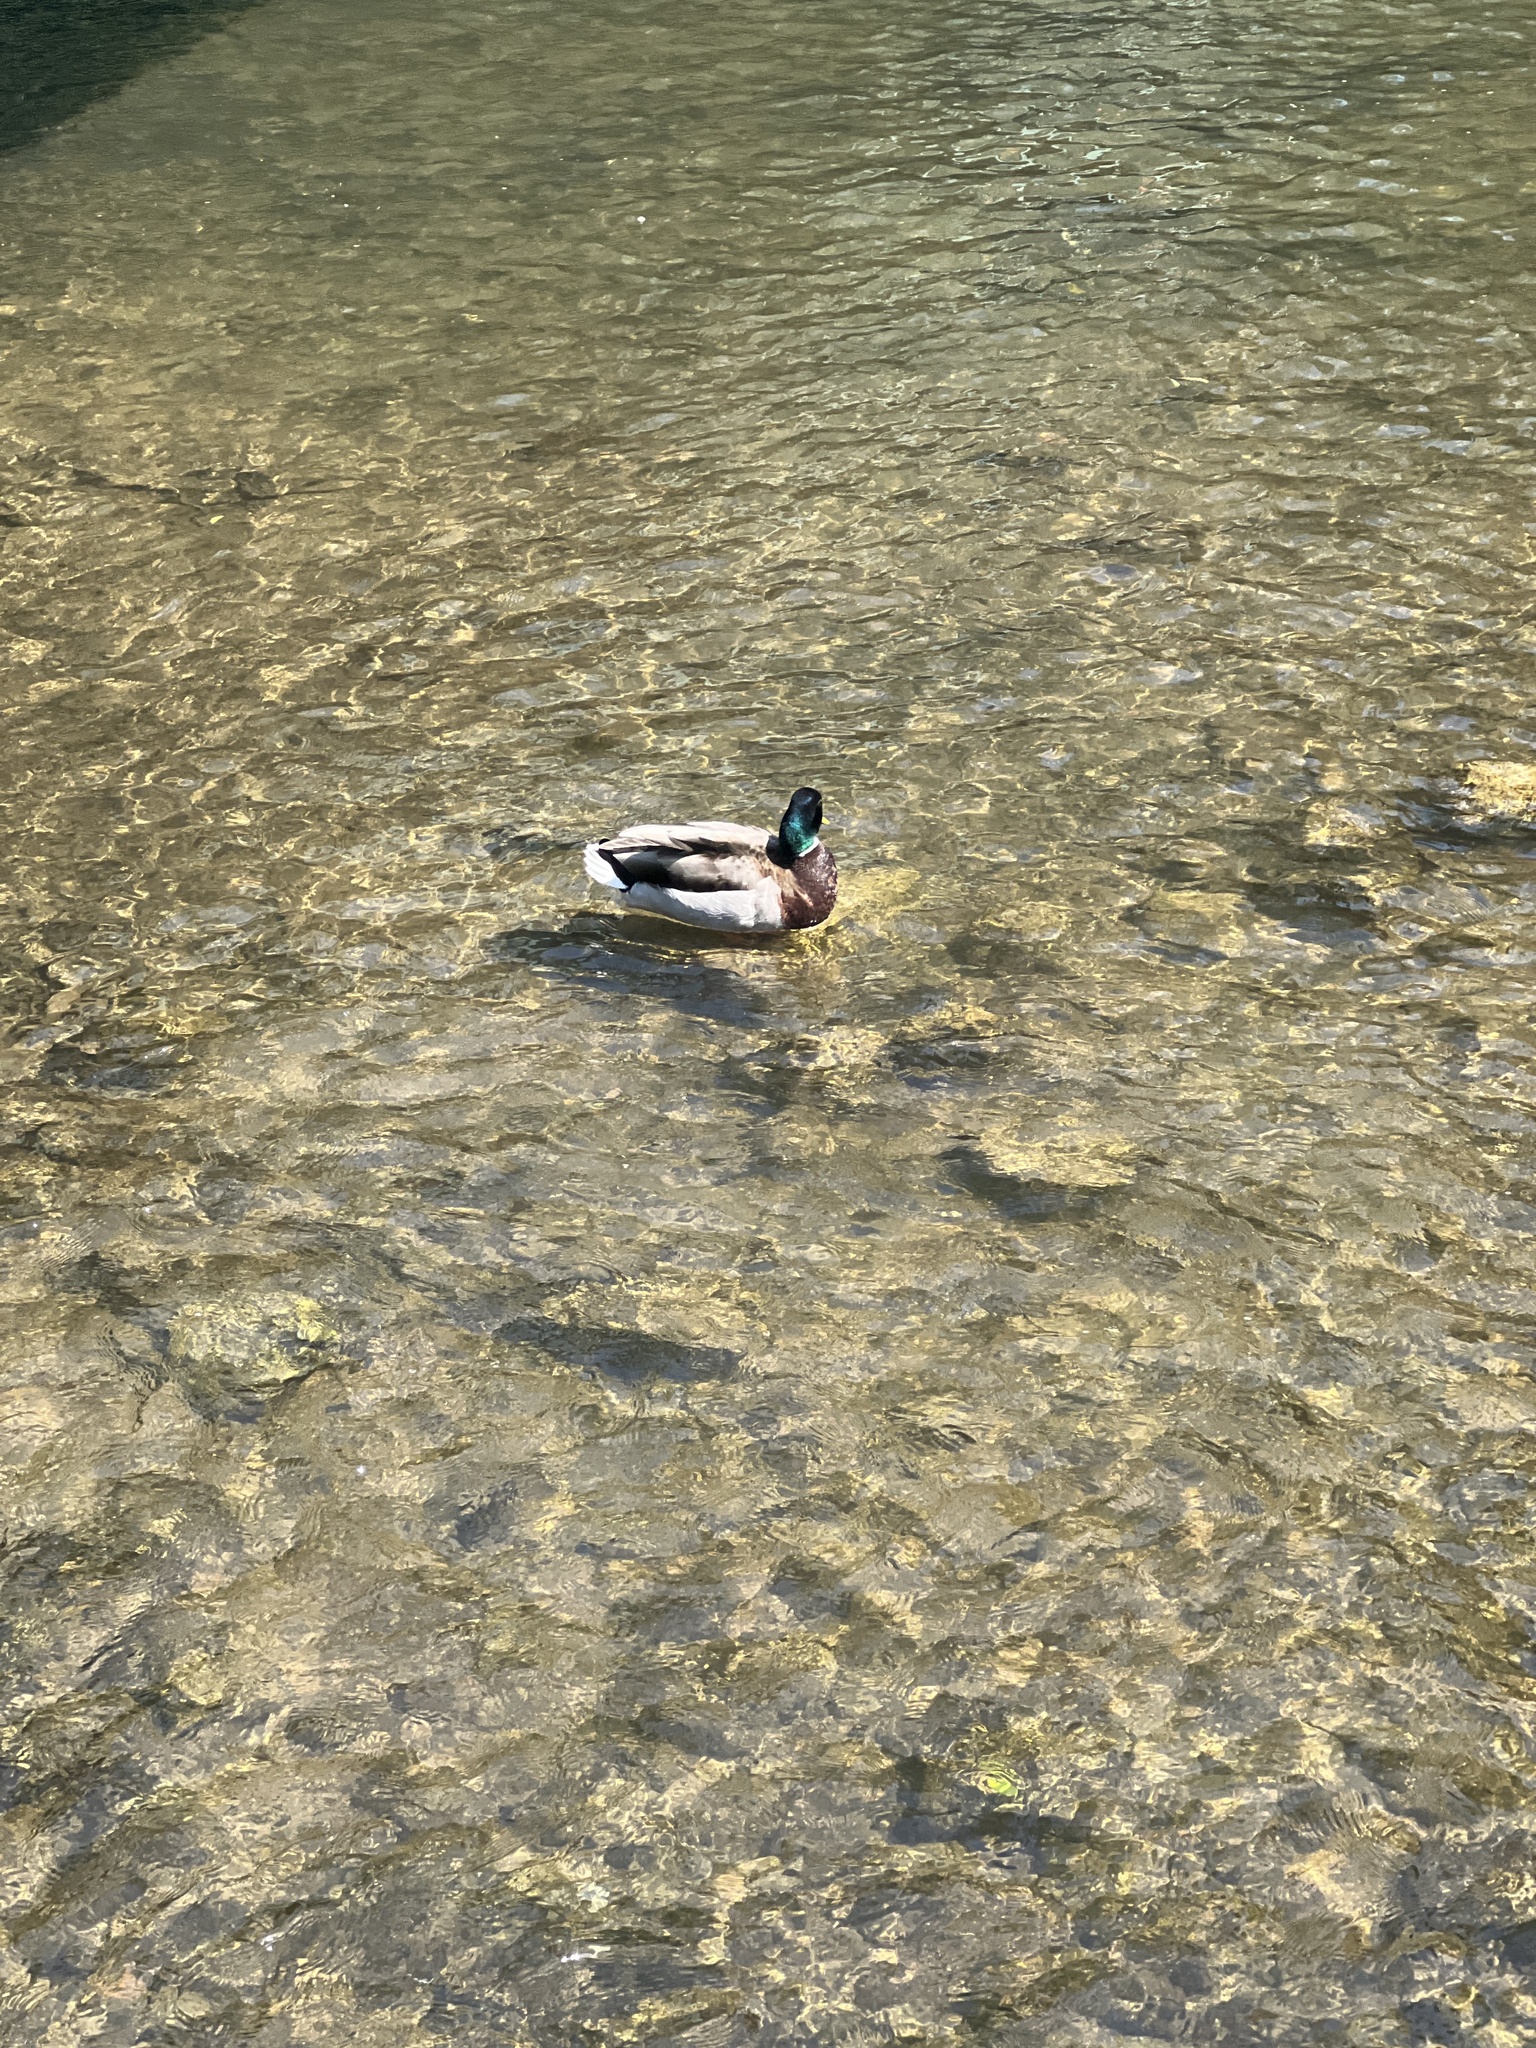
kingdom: Animalia
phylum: Chordata
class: Aves
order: Anseriformes
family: Anatidae
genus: Anas
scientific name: Anas platyrhynchos
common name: Mallard
